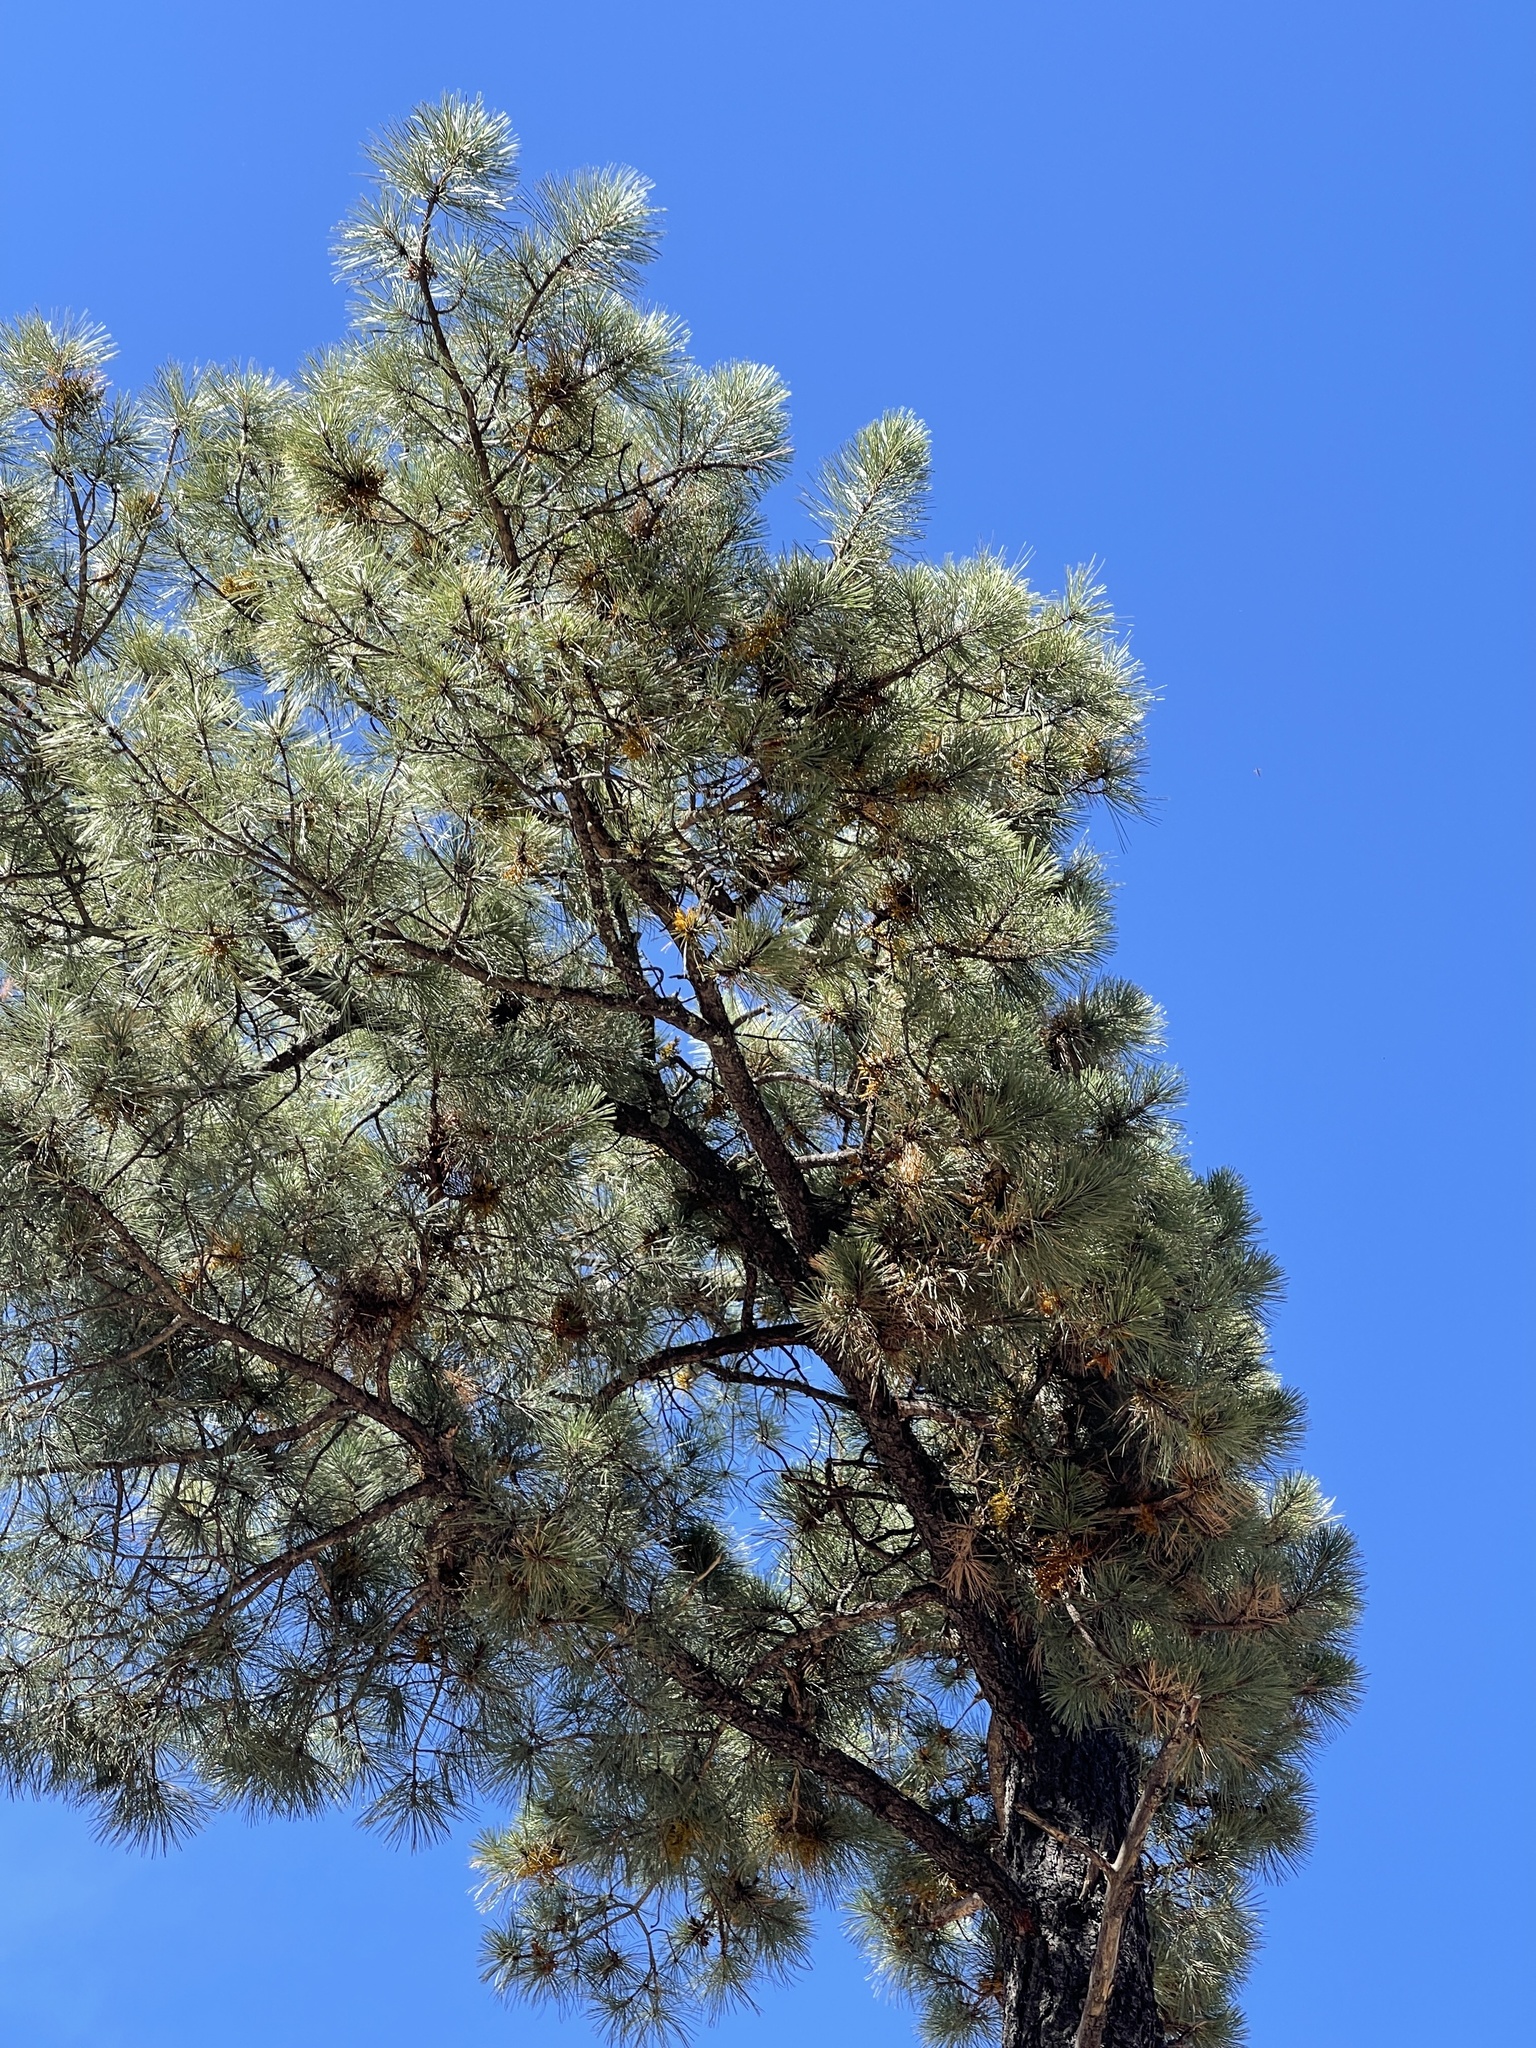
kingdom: Plantae
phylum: Tracheophyta
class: Pinopsida
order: Pinales
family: Pinaceae
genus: Pinus
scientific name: Pinus ponderosa
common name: Western yellow-pine
